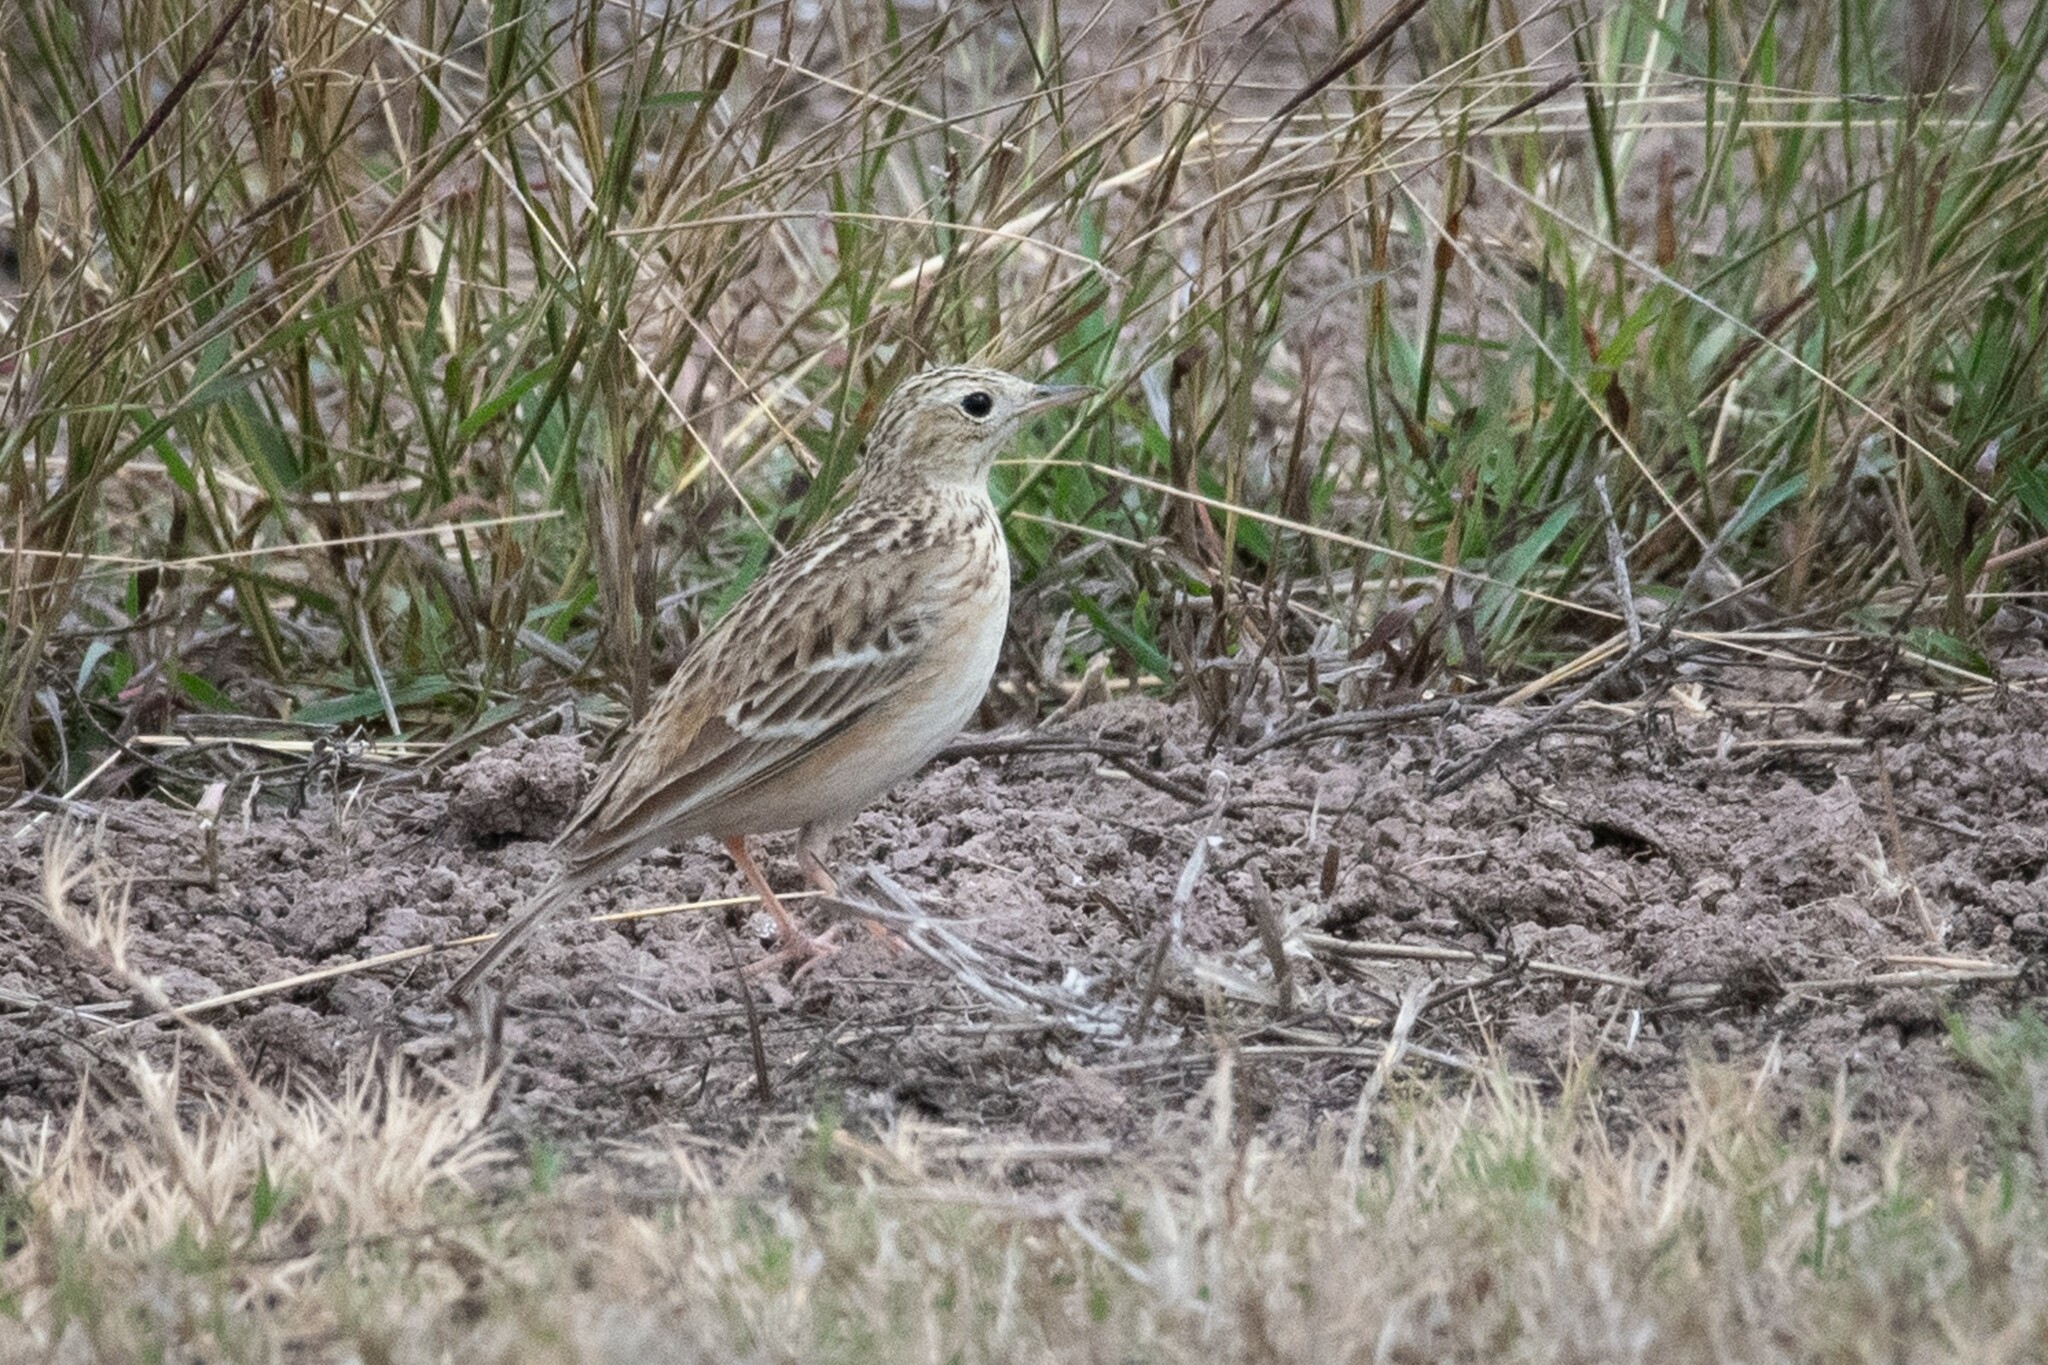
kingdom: Animalia
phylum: Chordata
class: Aves
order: Passeriformes
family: Motacillidae
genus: Anthus
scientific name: Anthus spragueii
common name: Sprague's pipit
